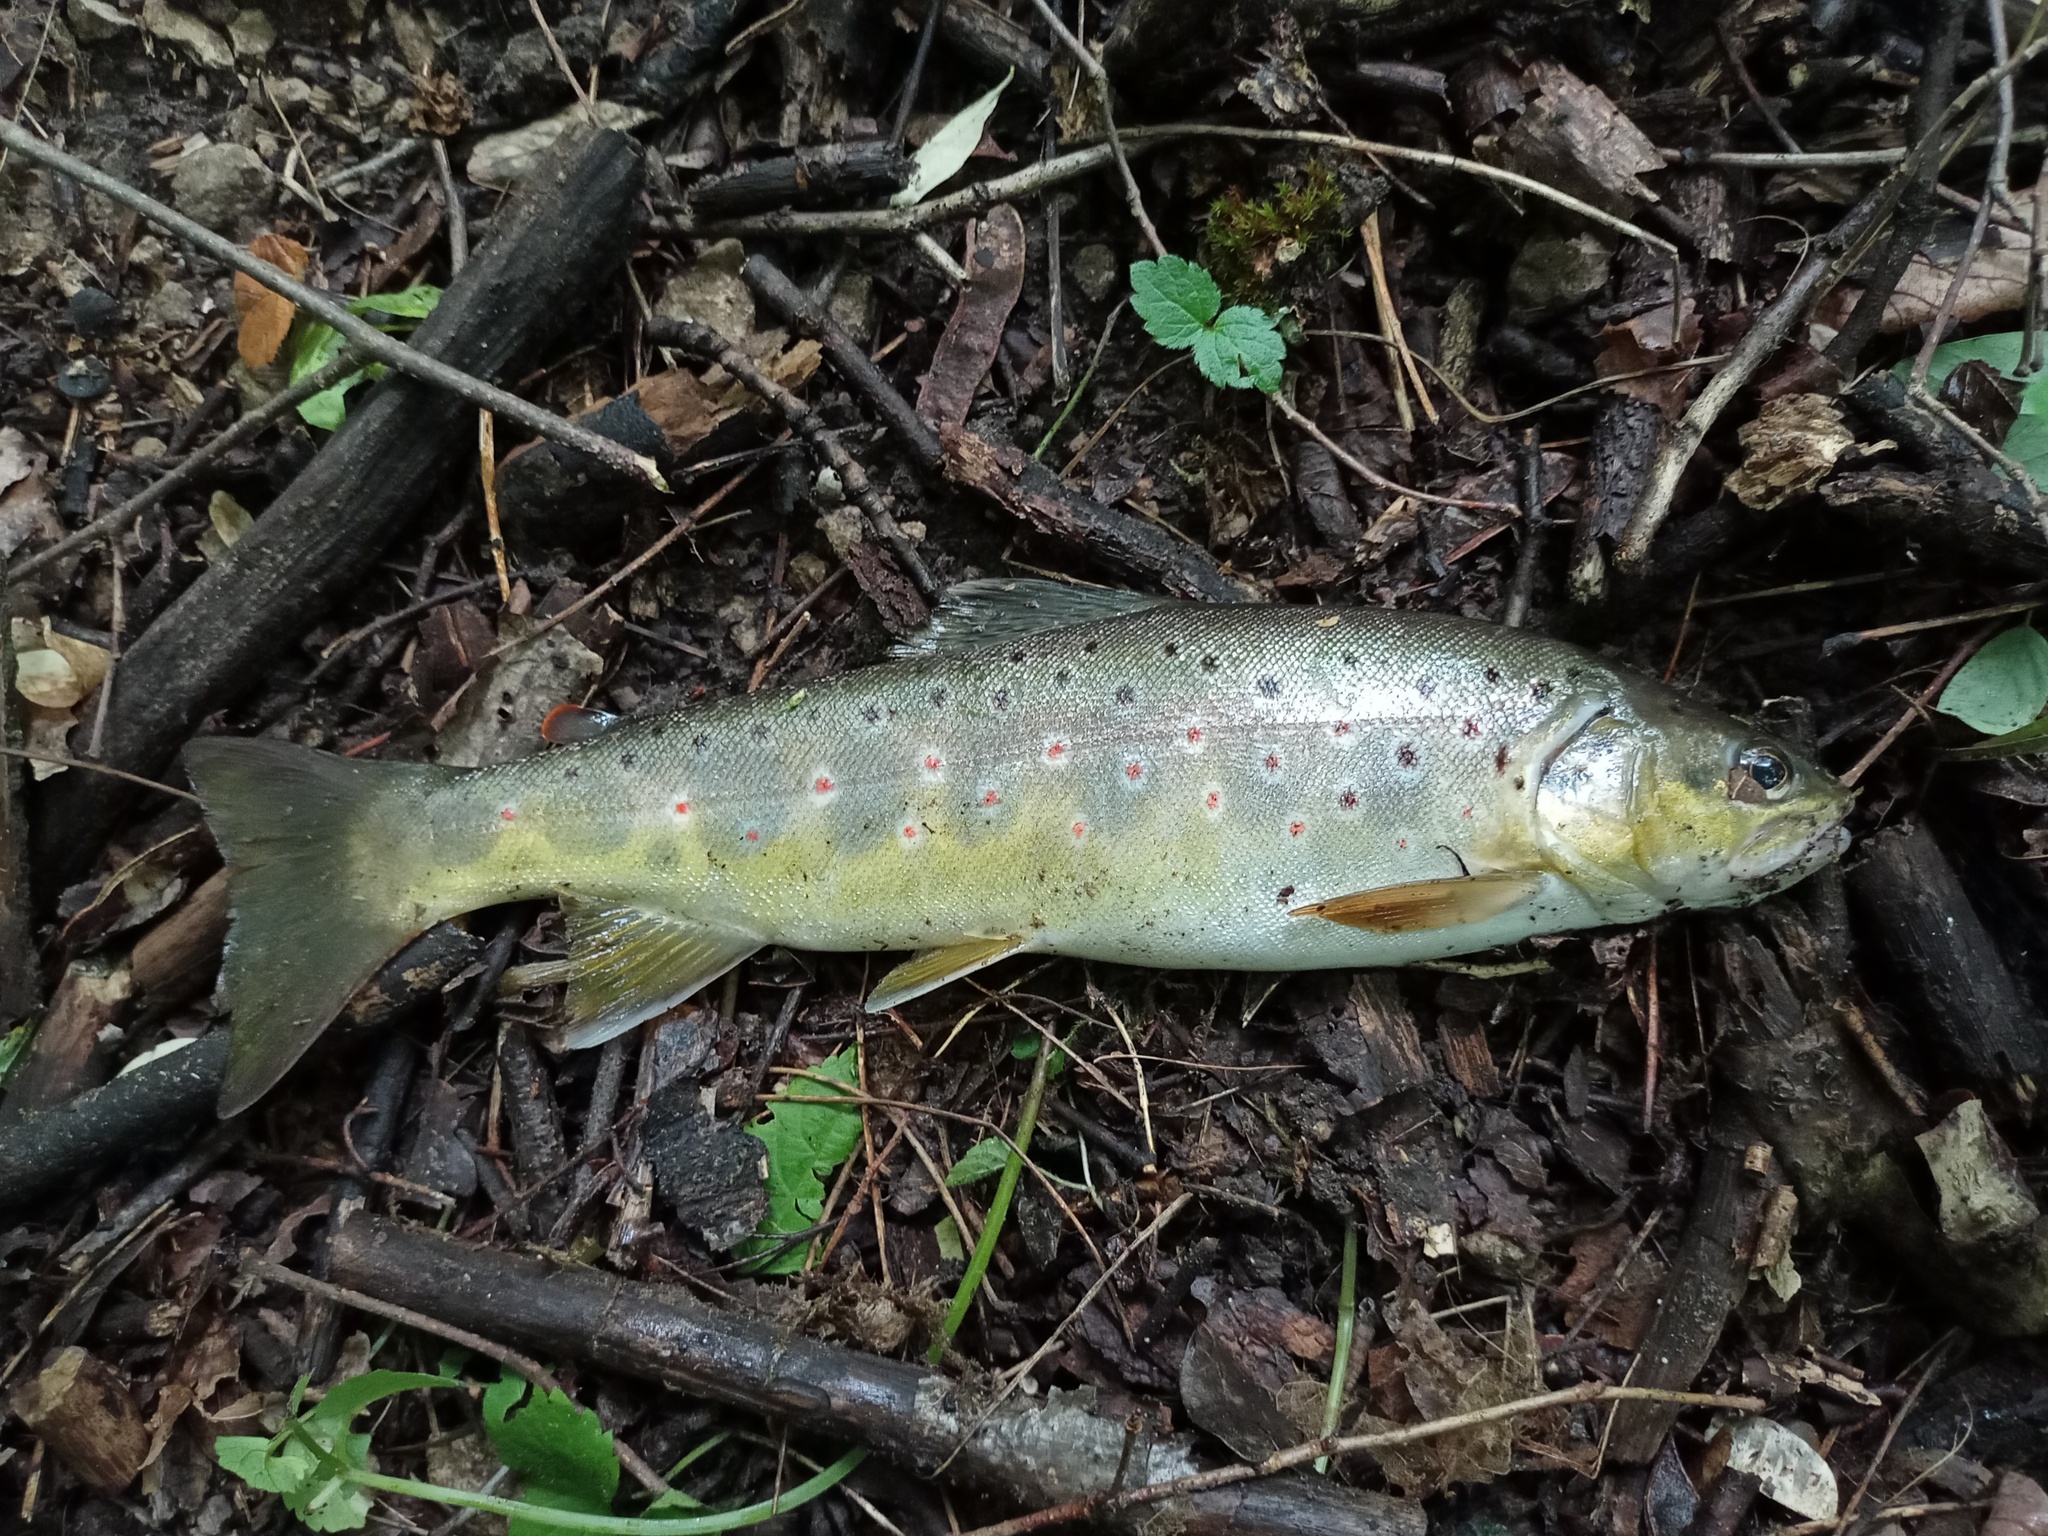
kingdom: Animalia
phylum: Chordata
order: Salmoniformes
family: Salmonidae
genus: Salmo
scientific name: Salmo trutta
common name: Brown trout
